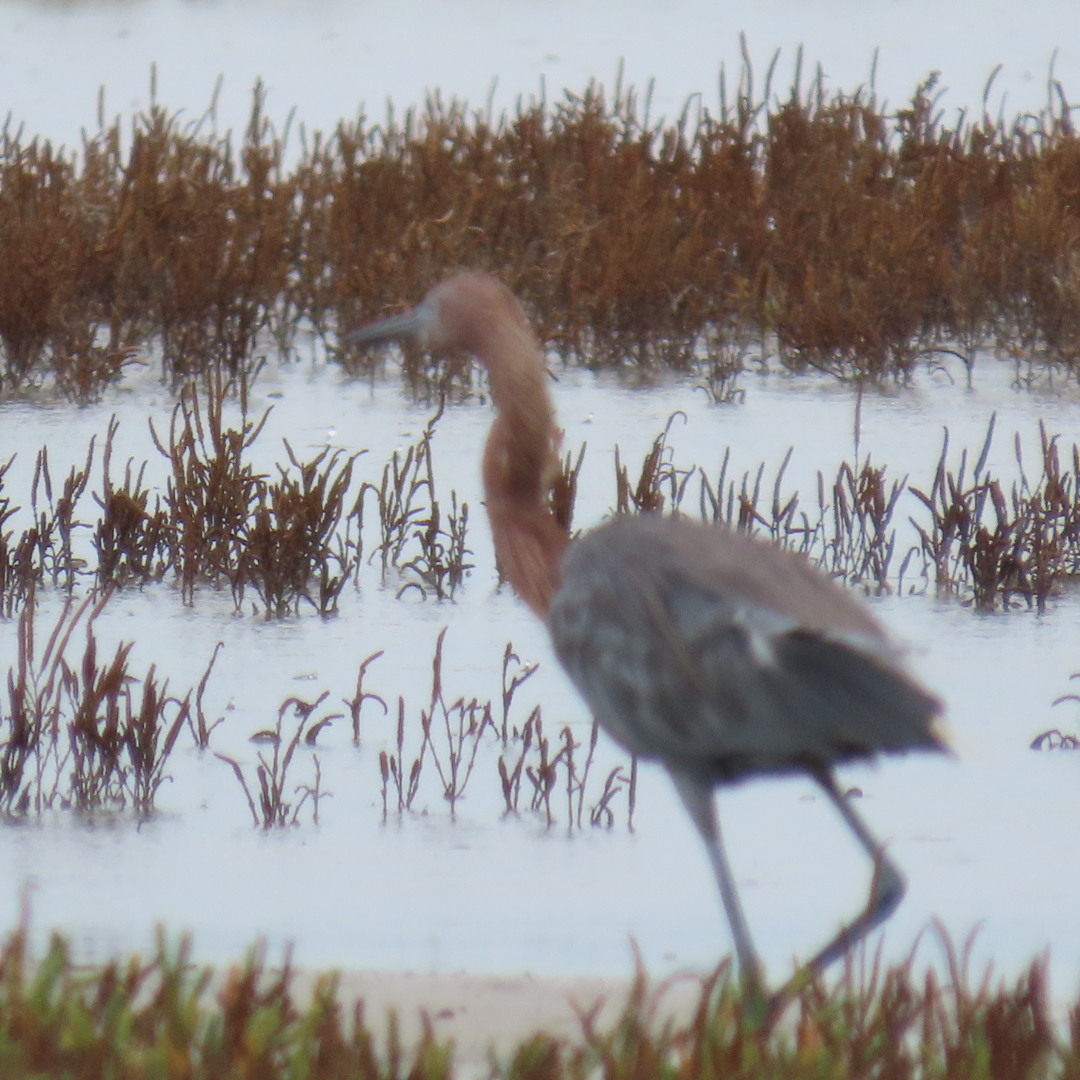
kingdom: Animalia
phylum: Chordata
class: Aves
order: Pelecaniformes
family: Ardeidae
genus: Egretta
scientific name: Egretta rufescens
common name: Reddish egret
